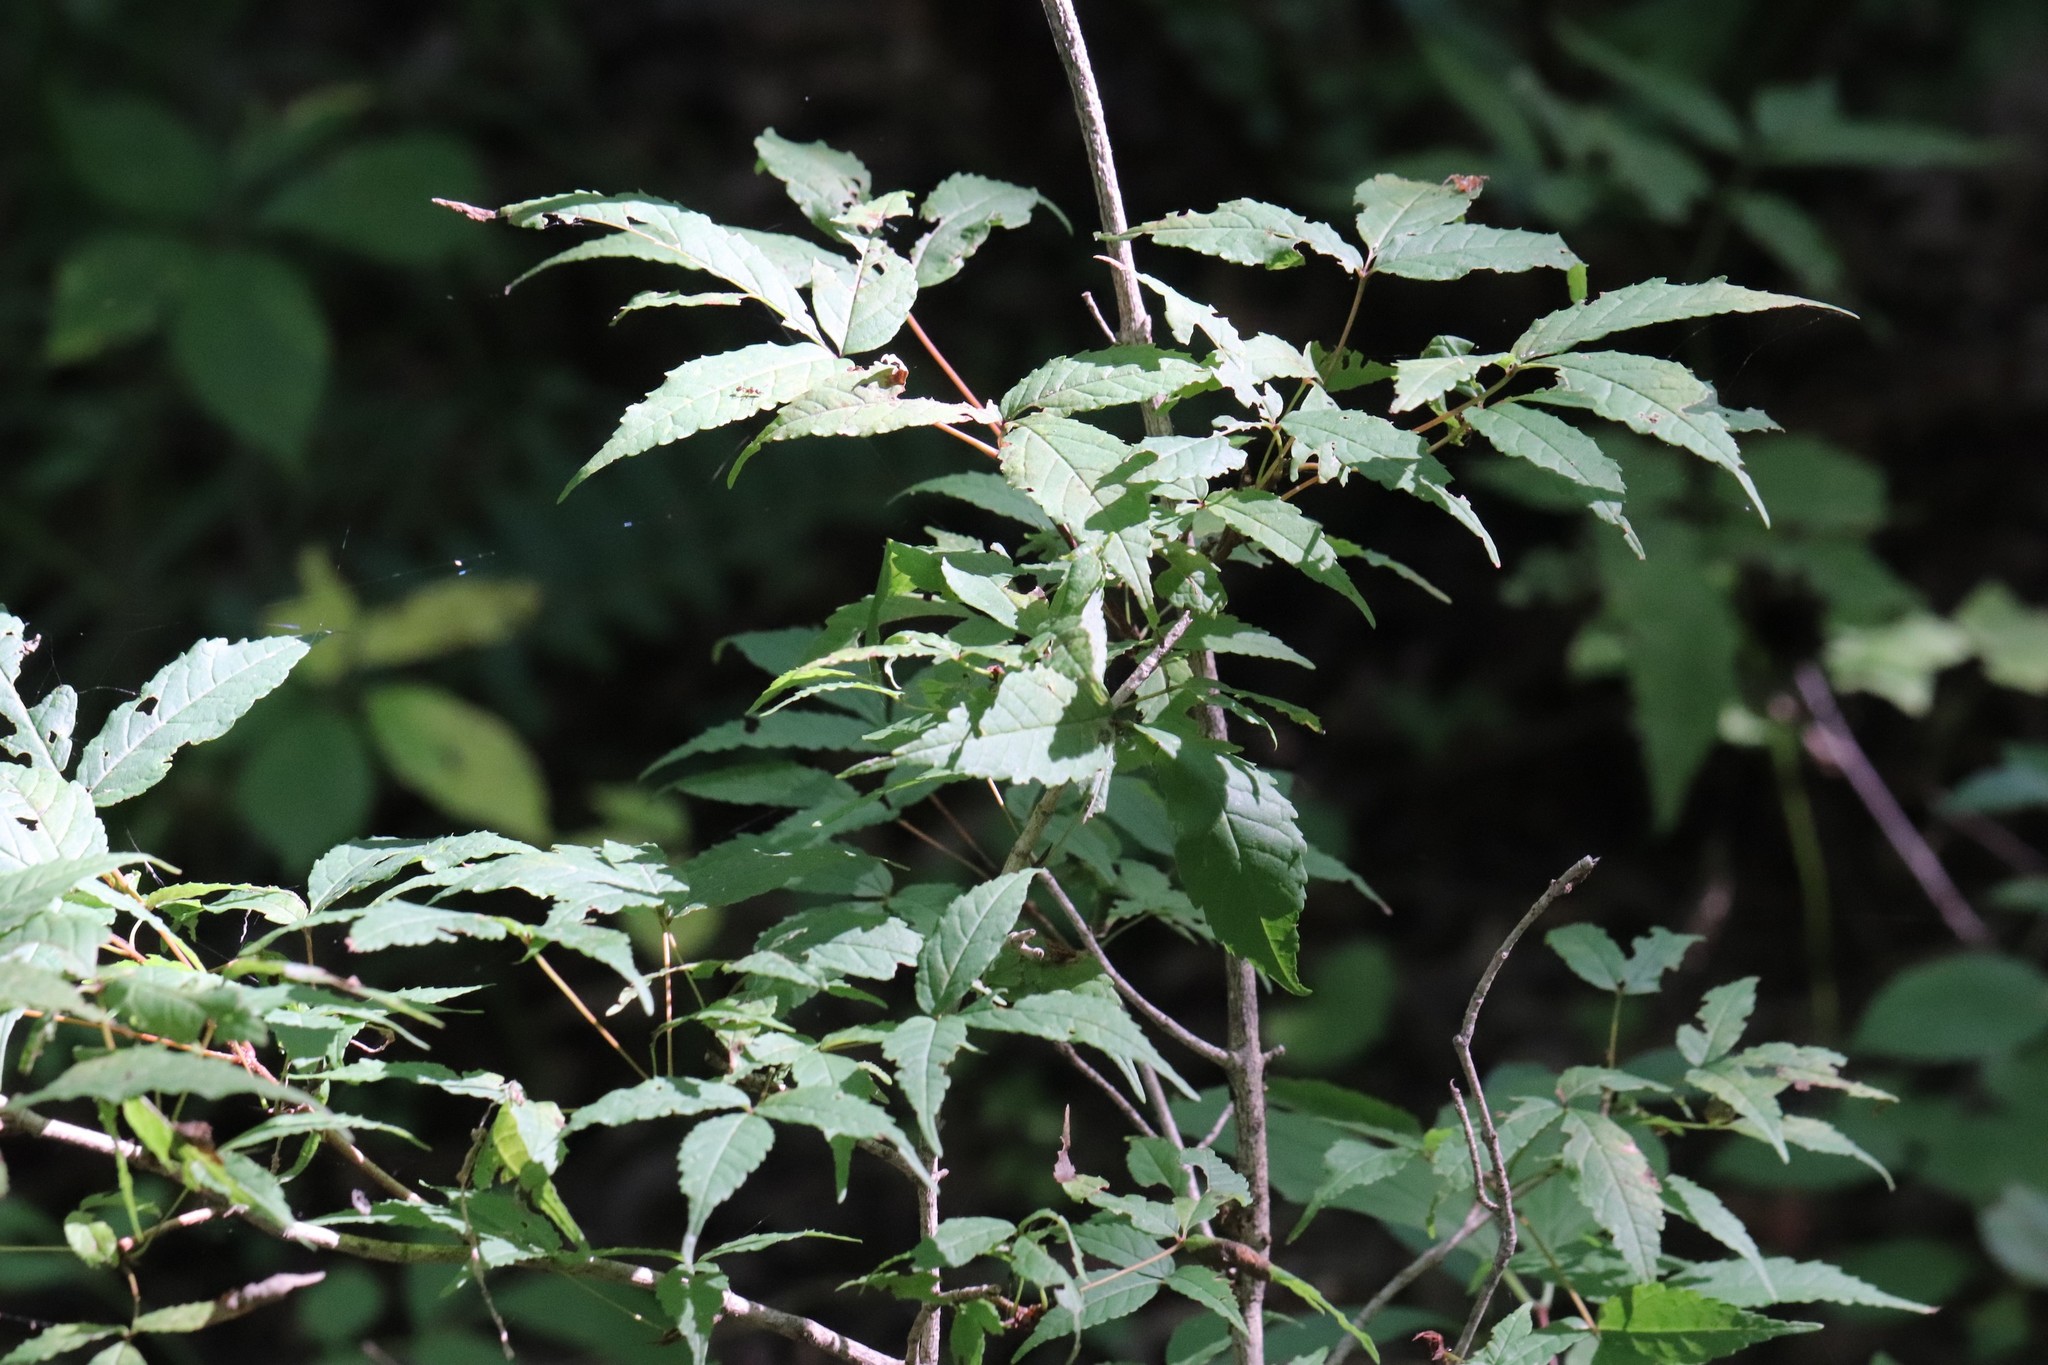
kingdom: Plantae
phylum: Tracheophyta
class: Magnoliopsida
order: Sapindales
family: Sapindaceae
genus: Acer
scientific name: Acer mandshuricum
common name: Manchurian maple
